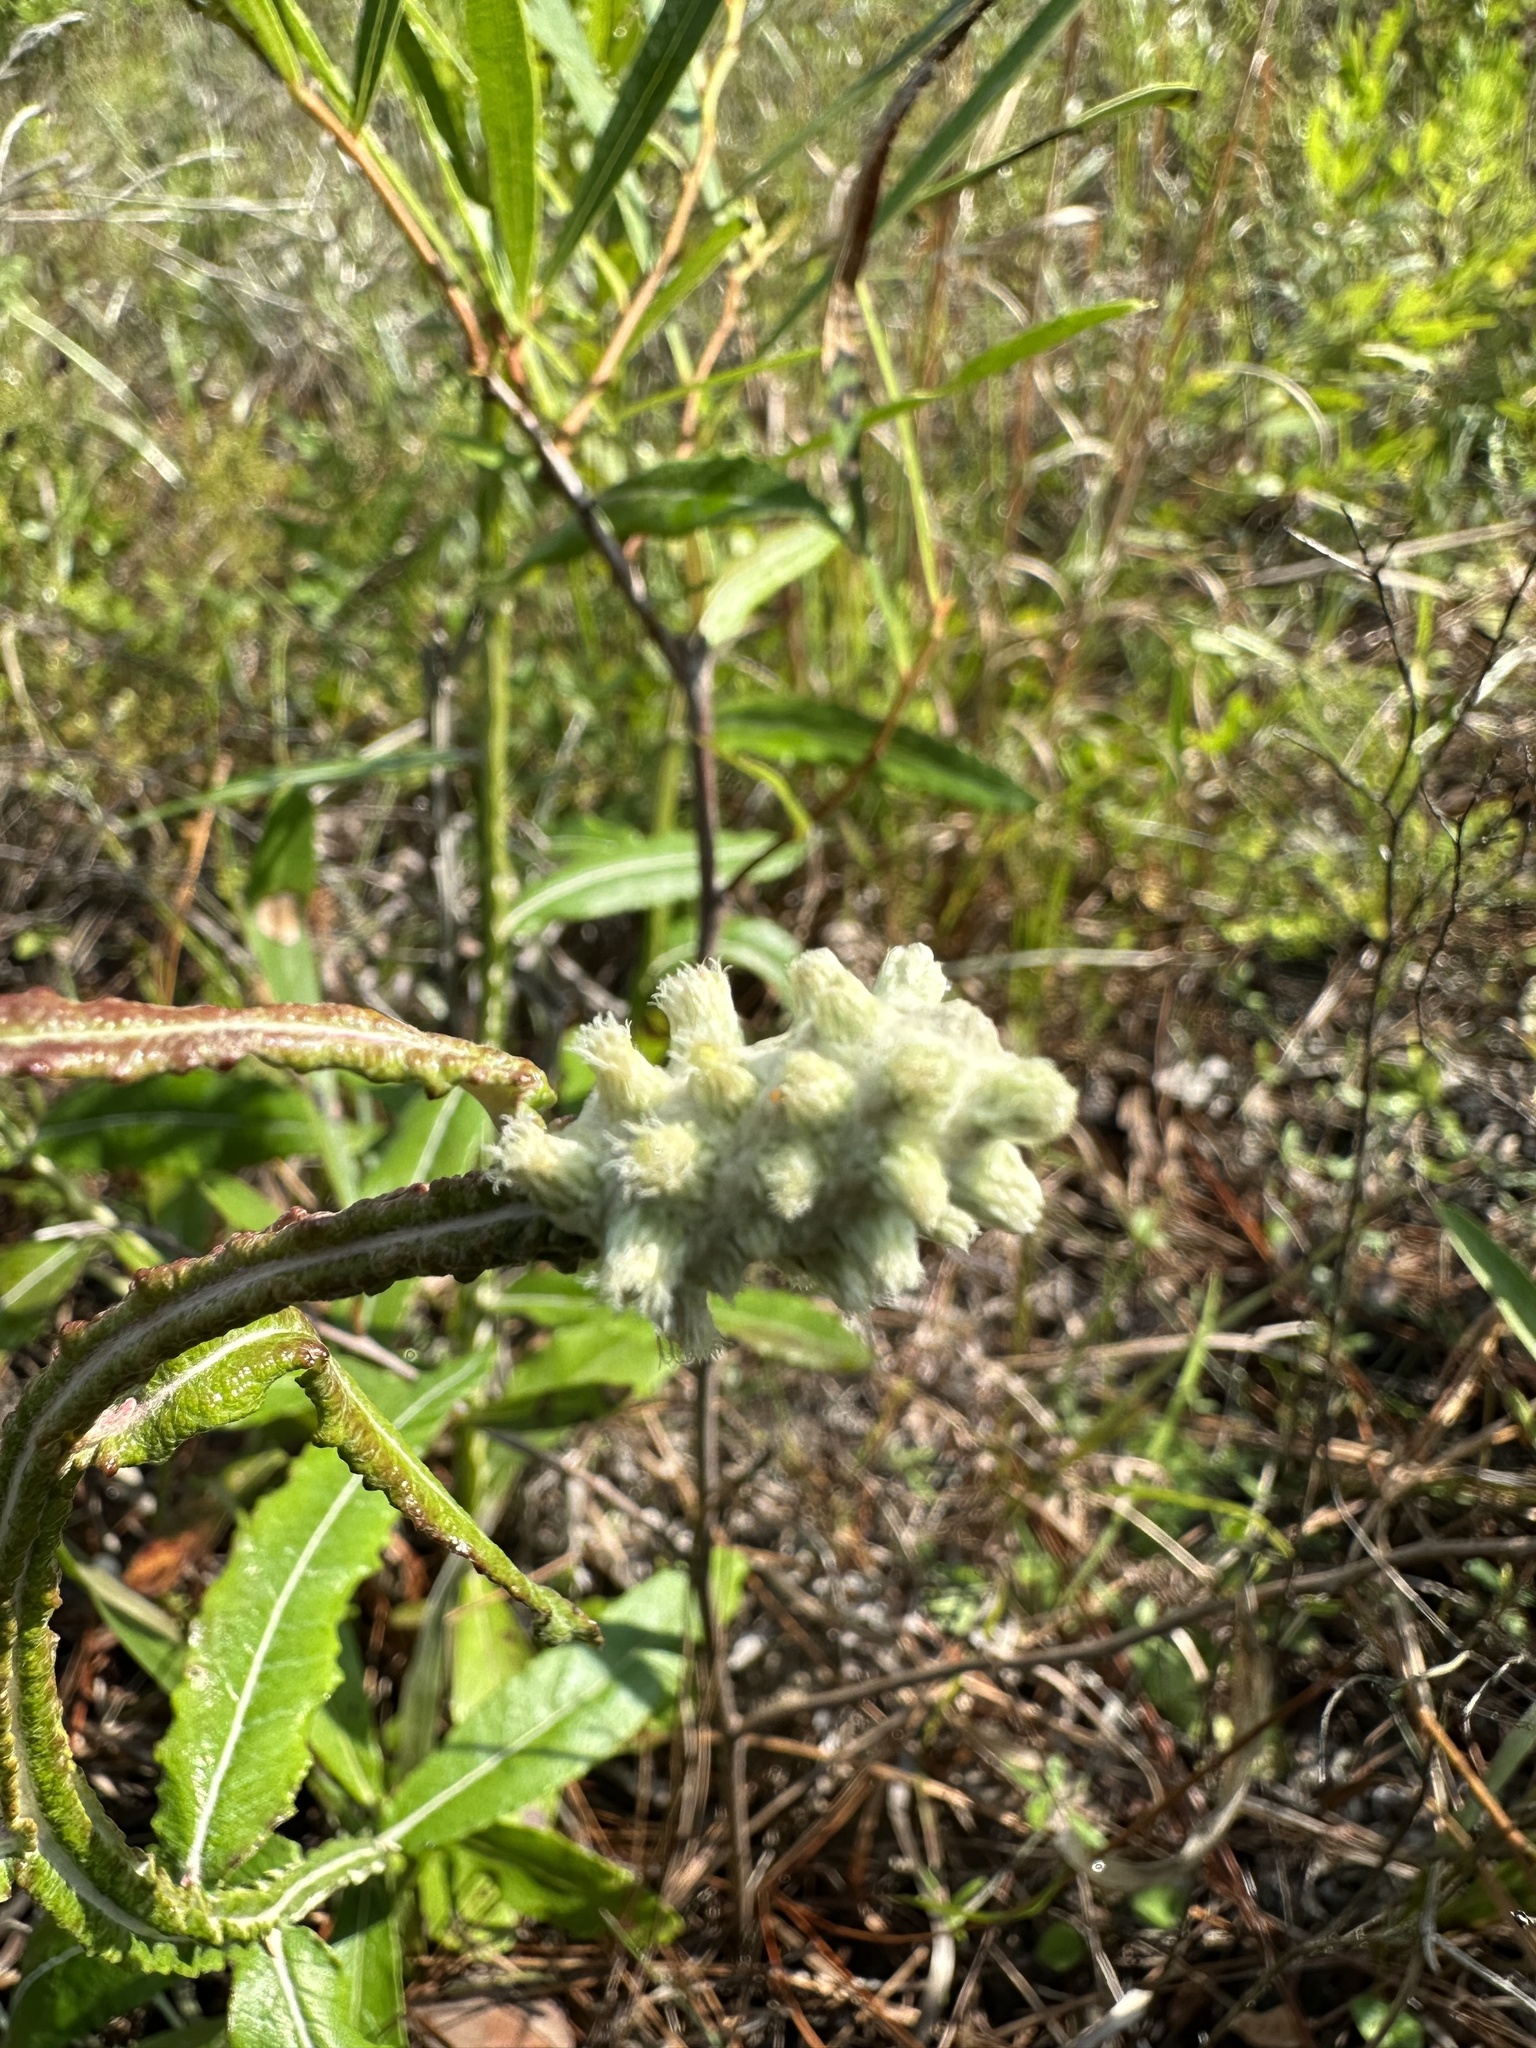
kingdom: Plantae
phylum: Tracheophyta
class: Magnoliopsida
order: Asterales
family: Asteraceae
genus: Pterocaulon
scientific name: Pterocaulon pycnostachyum
